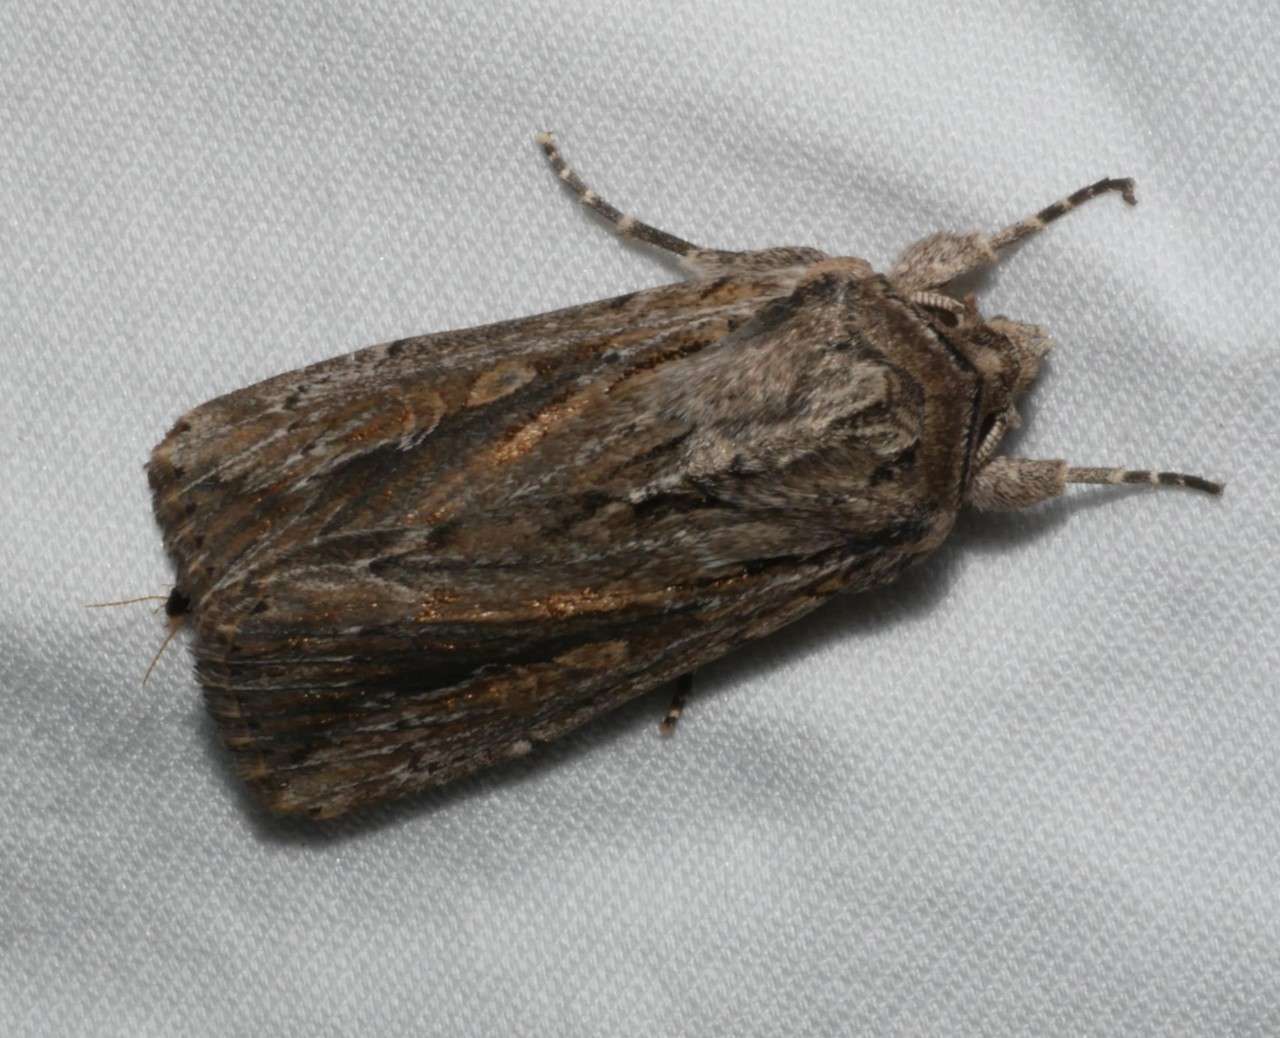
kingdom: Animalia
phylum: Arthropoda
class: Insecta
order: Lepidoptera
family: Noctuidae
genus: Persectania
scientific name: Persectania dyscrita
